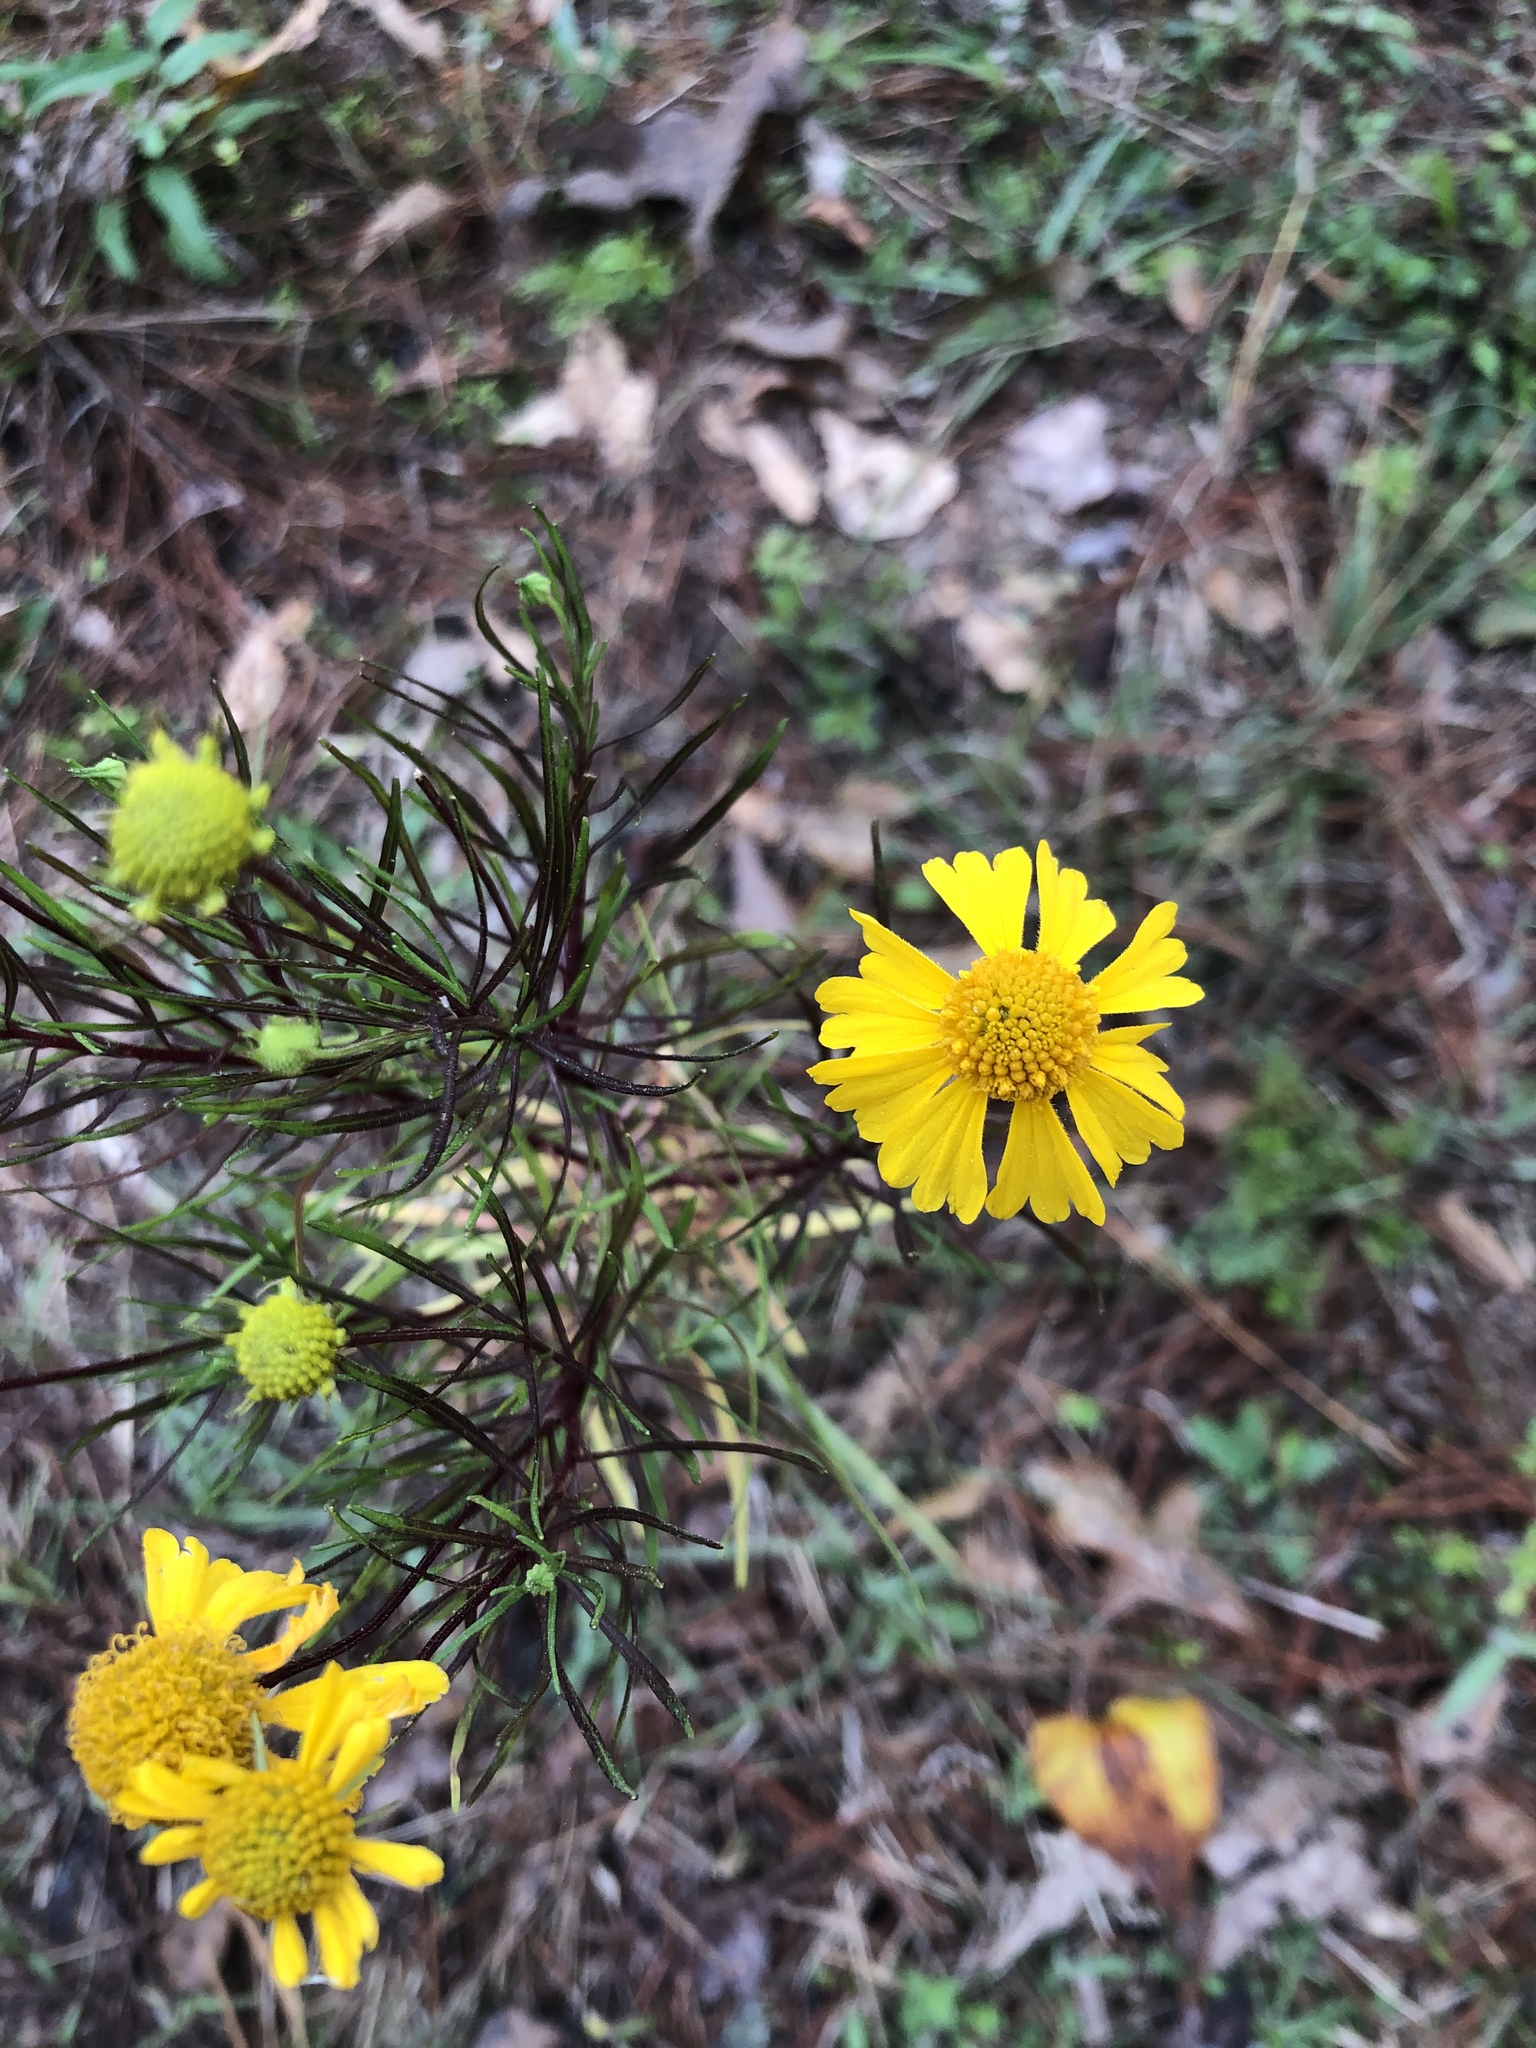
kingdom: Plantae
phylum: Tracheophyta
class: Magnoliopsida
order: Asterales
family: Asteraceae
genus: Helenium
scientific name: Helenium amarum
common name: Bitter sneezeweed
